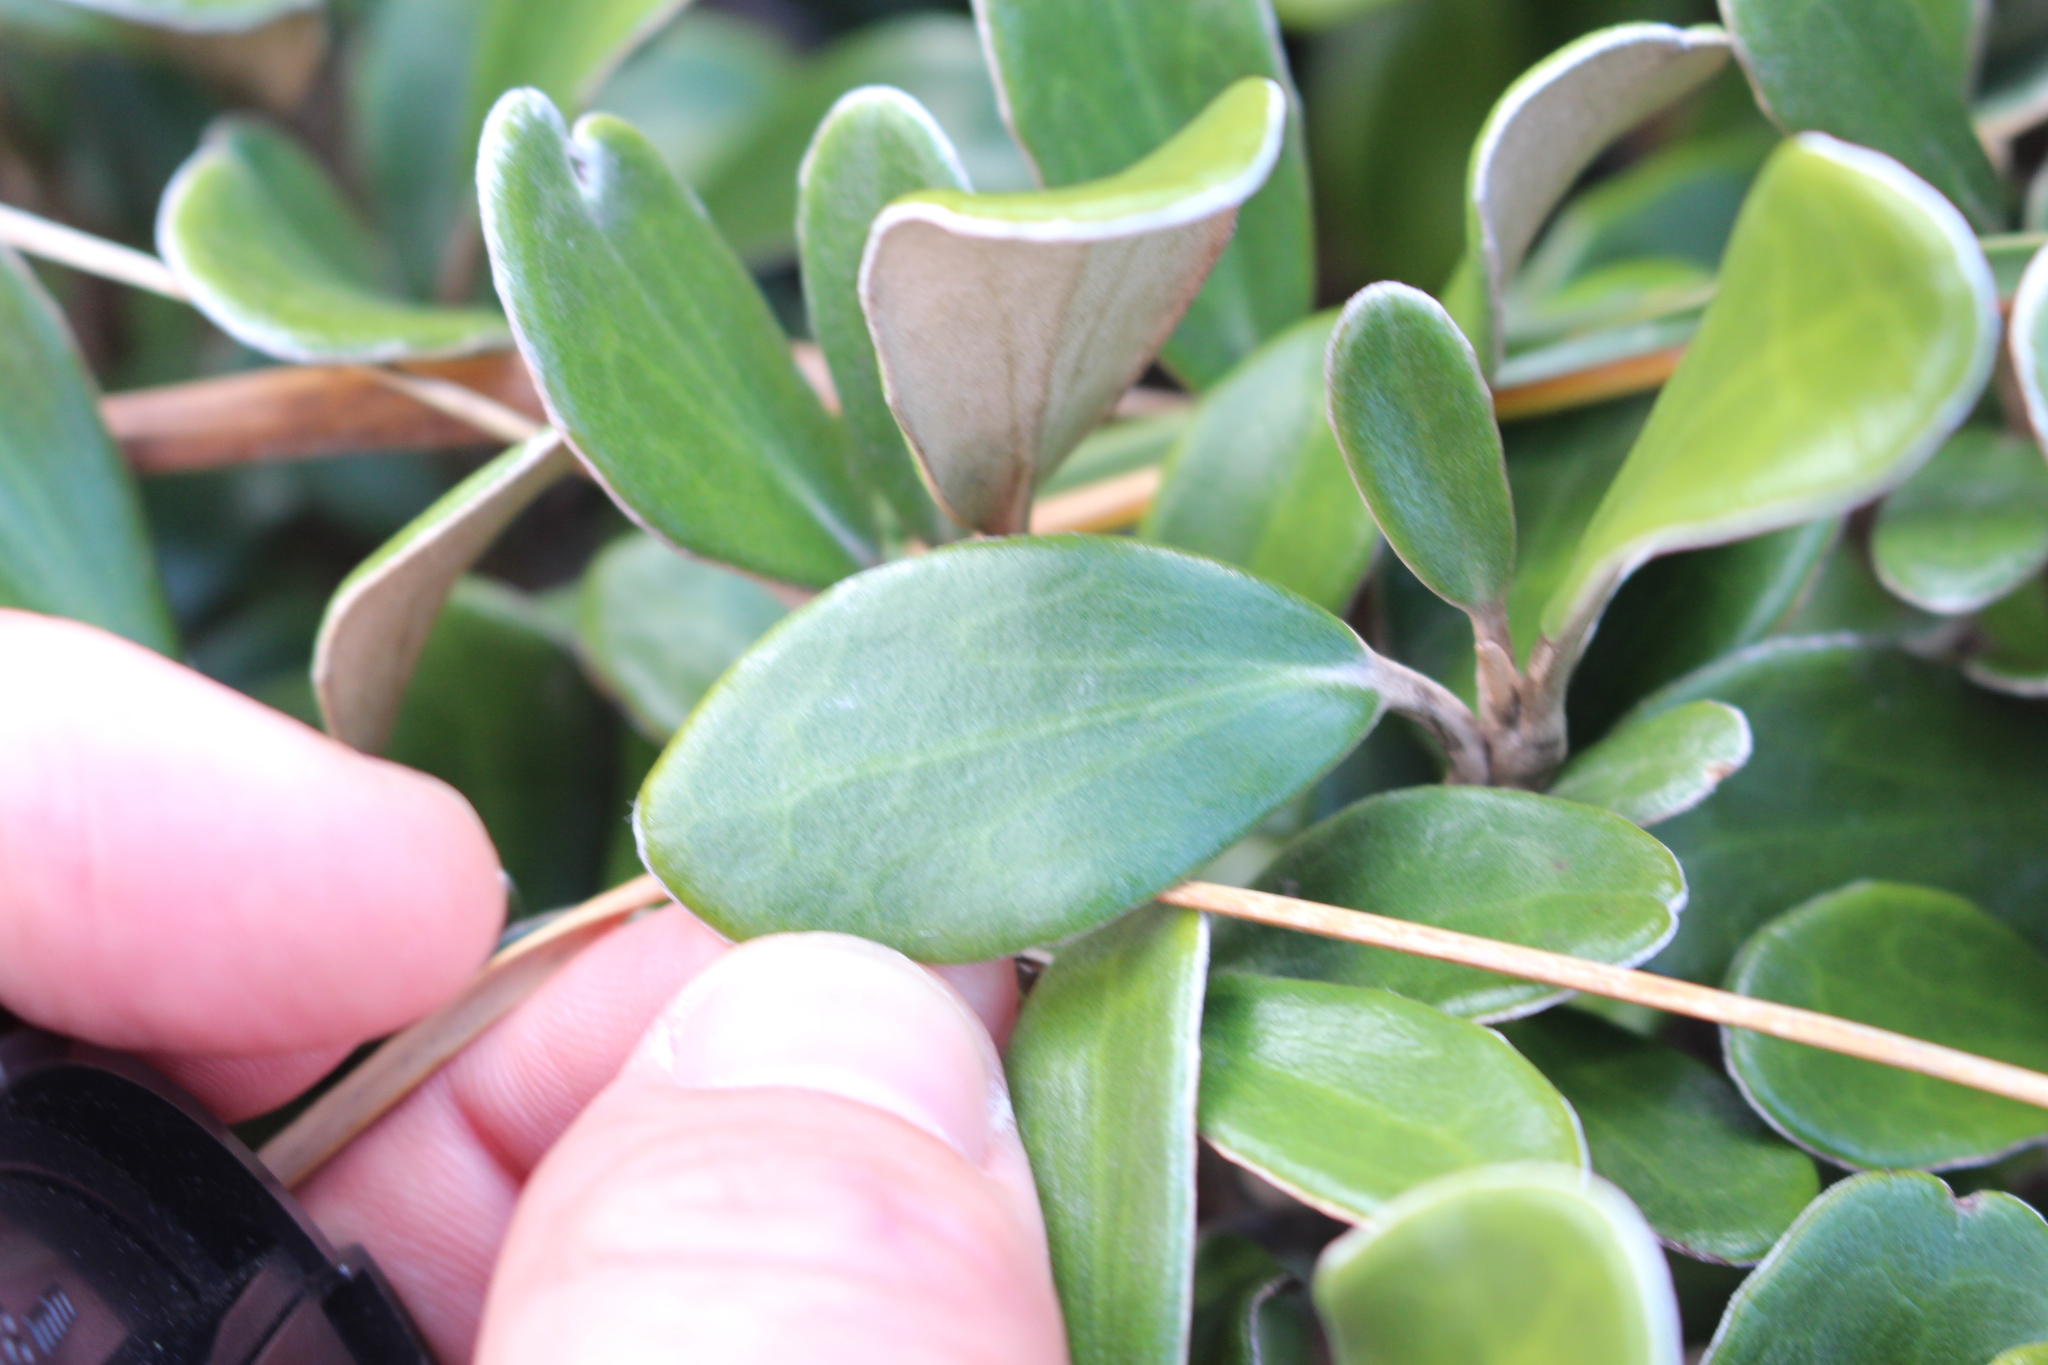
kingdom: Plantae
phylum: Tracheophyta
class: Magnoliopsida
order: Asterales
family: Asteraceae
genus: Brachyglottis
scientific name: Brachyglottis bidwillii
